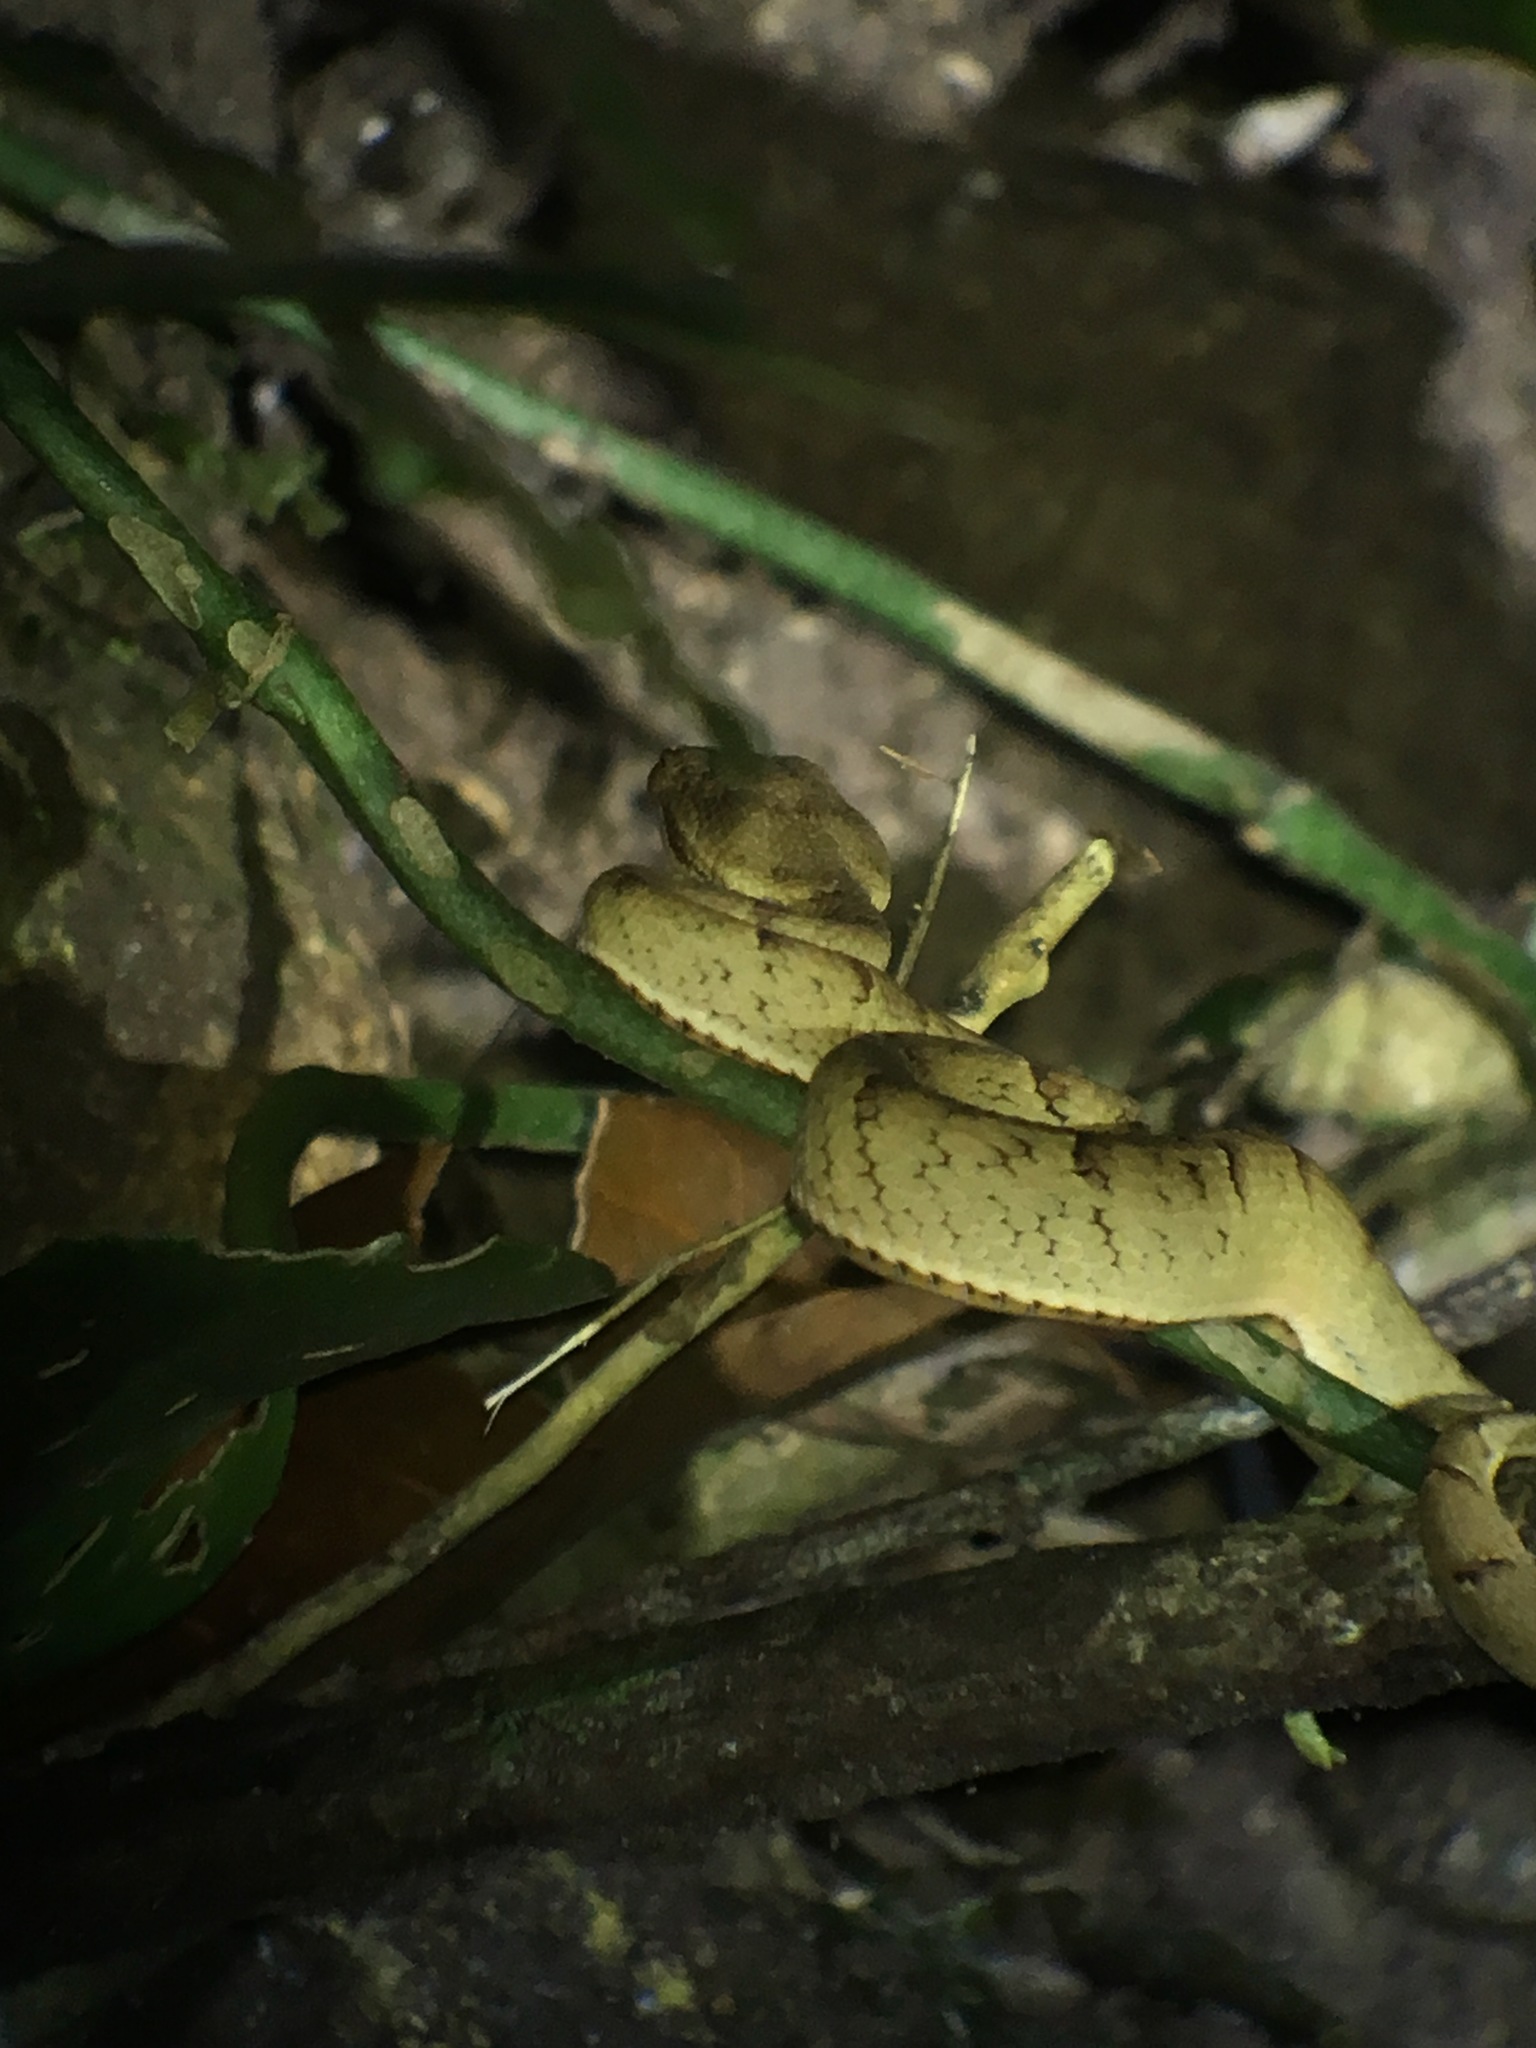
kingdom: Animalia
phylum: Chordata
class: Squamata
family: Viperidae
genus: Bothriechis
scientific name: Bothriechis lateralis
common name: Coffee palm viper
